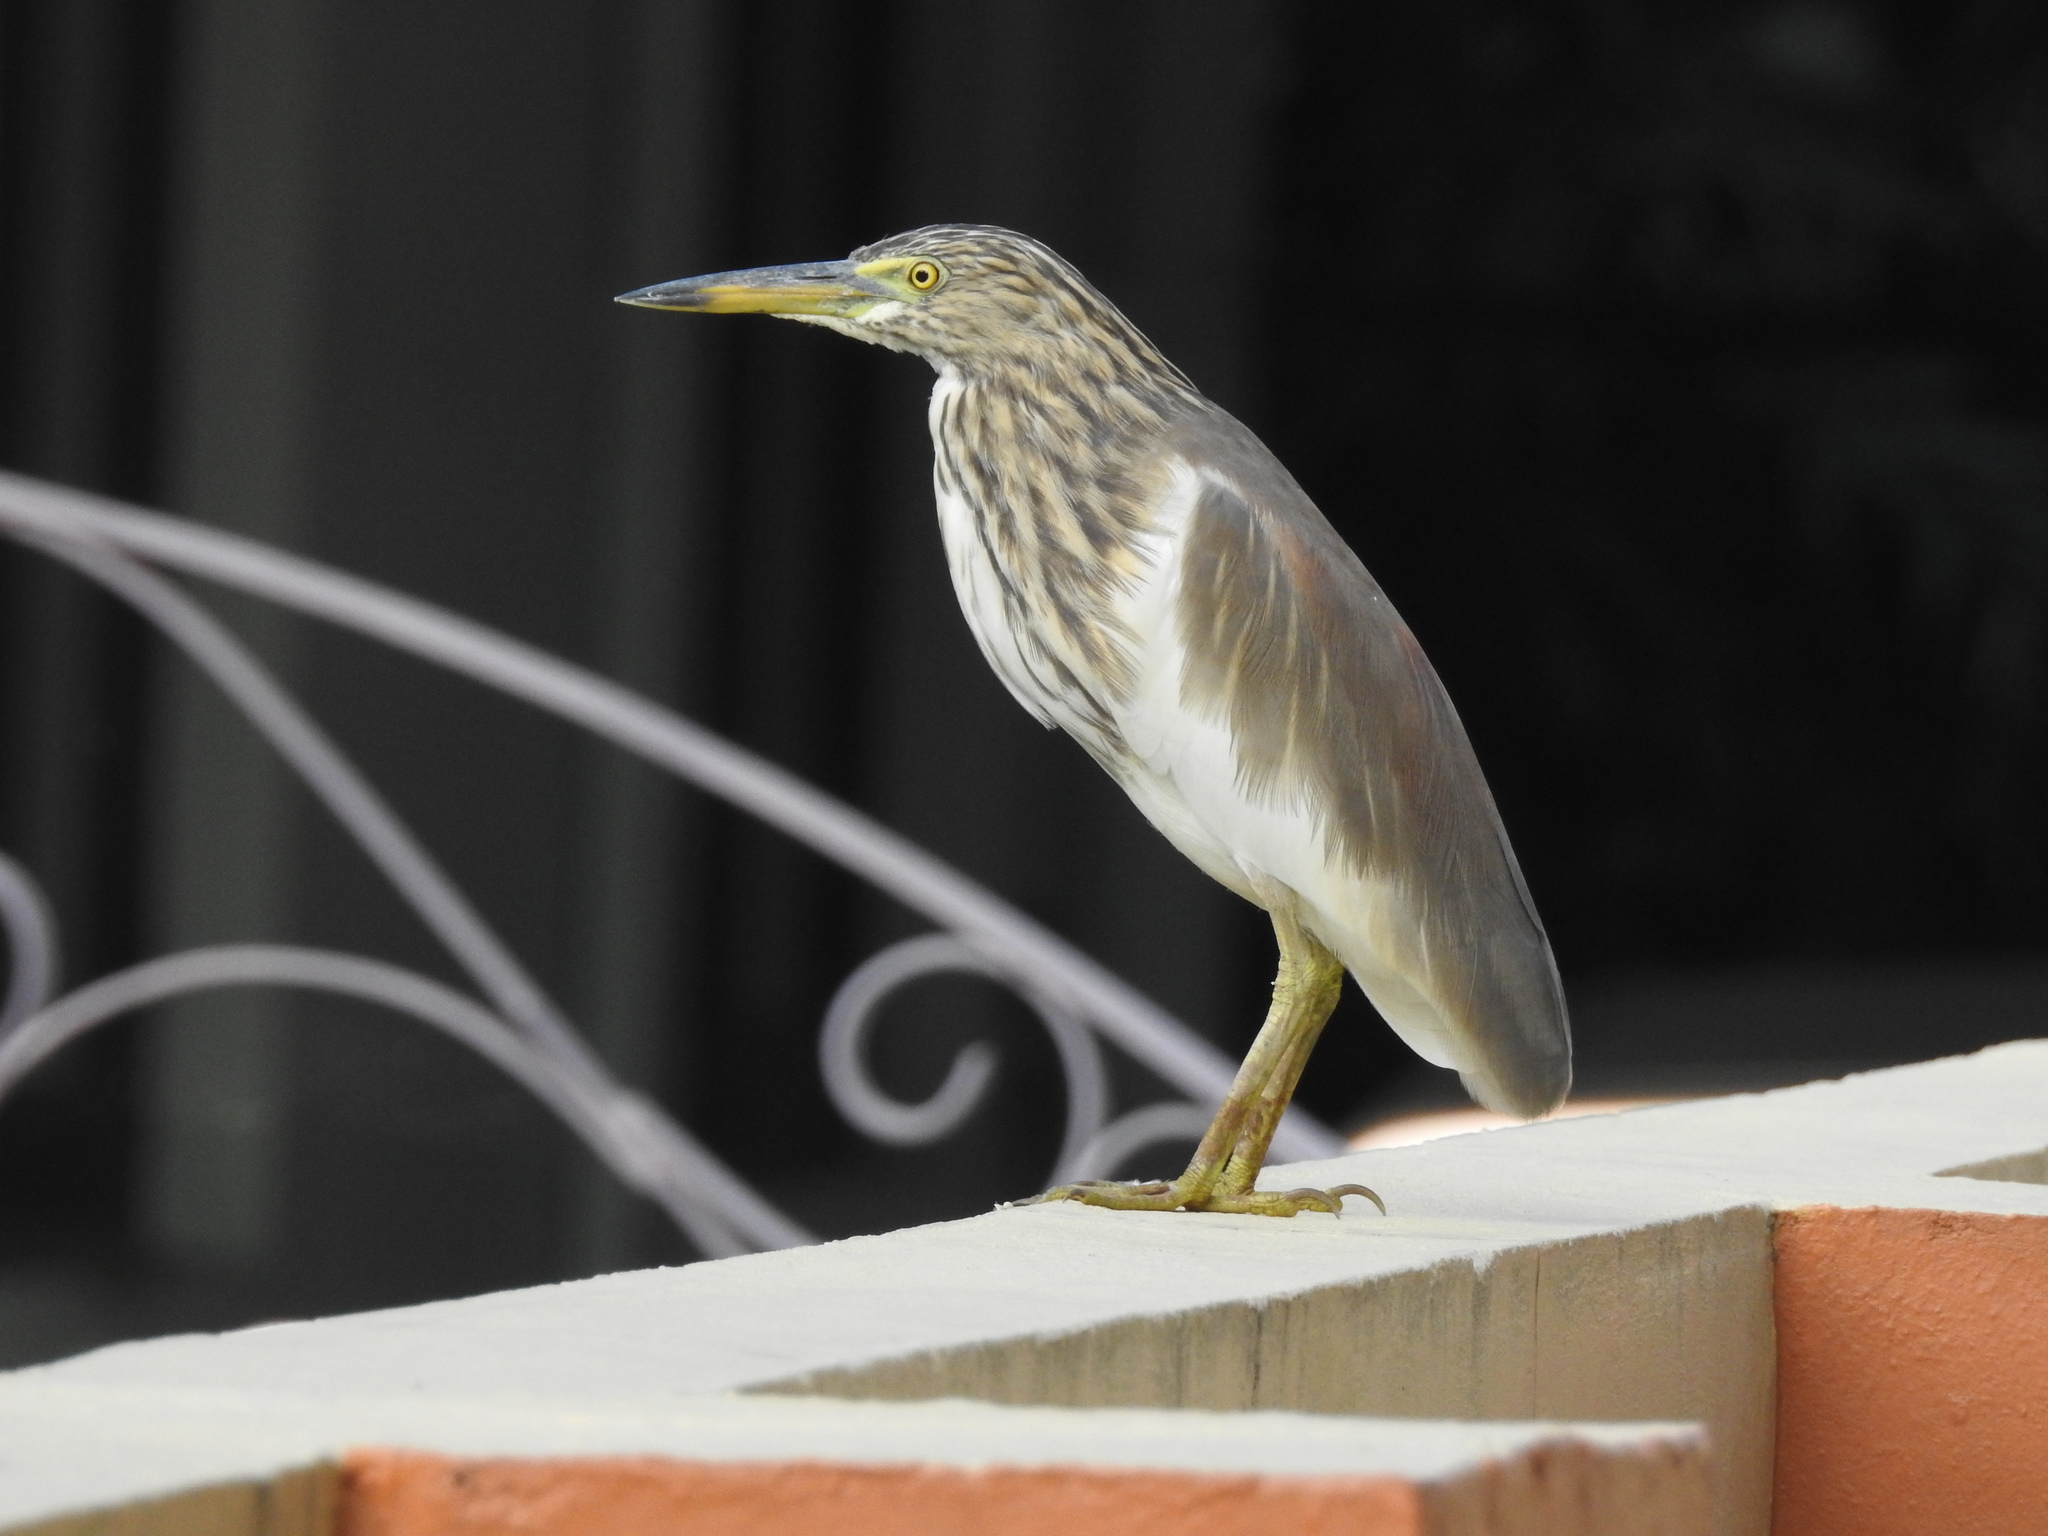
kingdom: Animalia
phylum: Chordata
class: Aves
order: Pelecaniformes
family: Ardeidae
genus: Ardeola
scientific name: Ardeola grayii
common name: Indian pond heron
